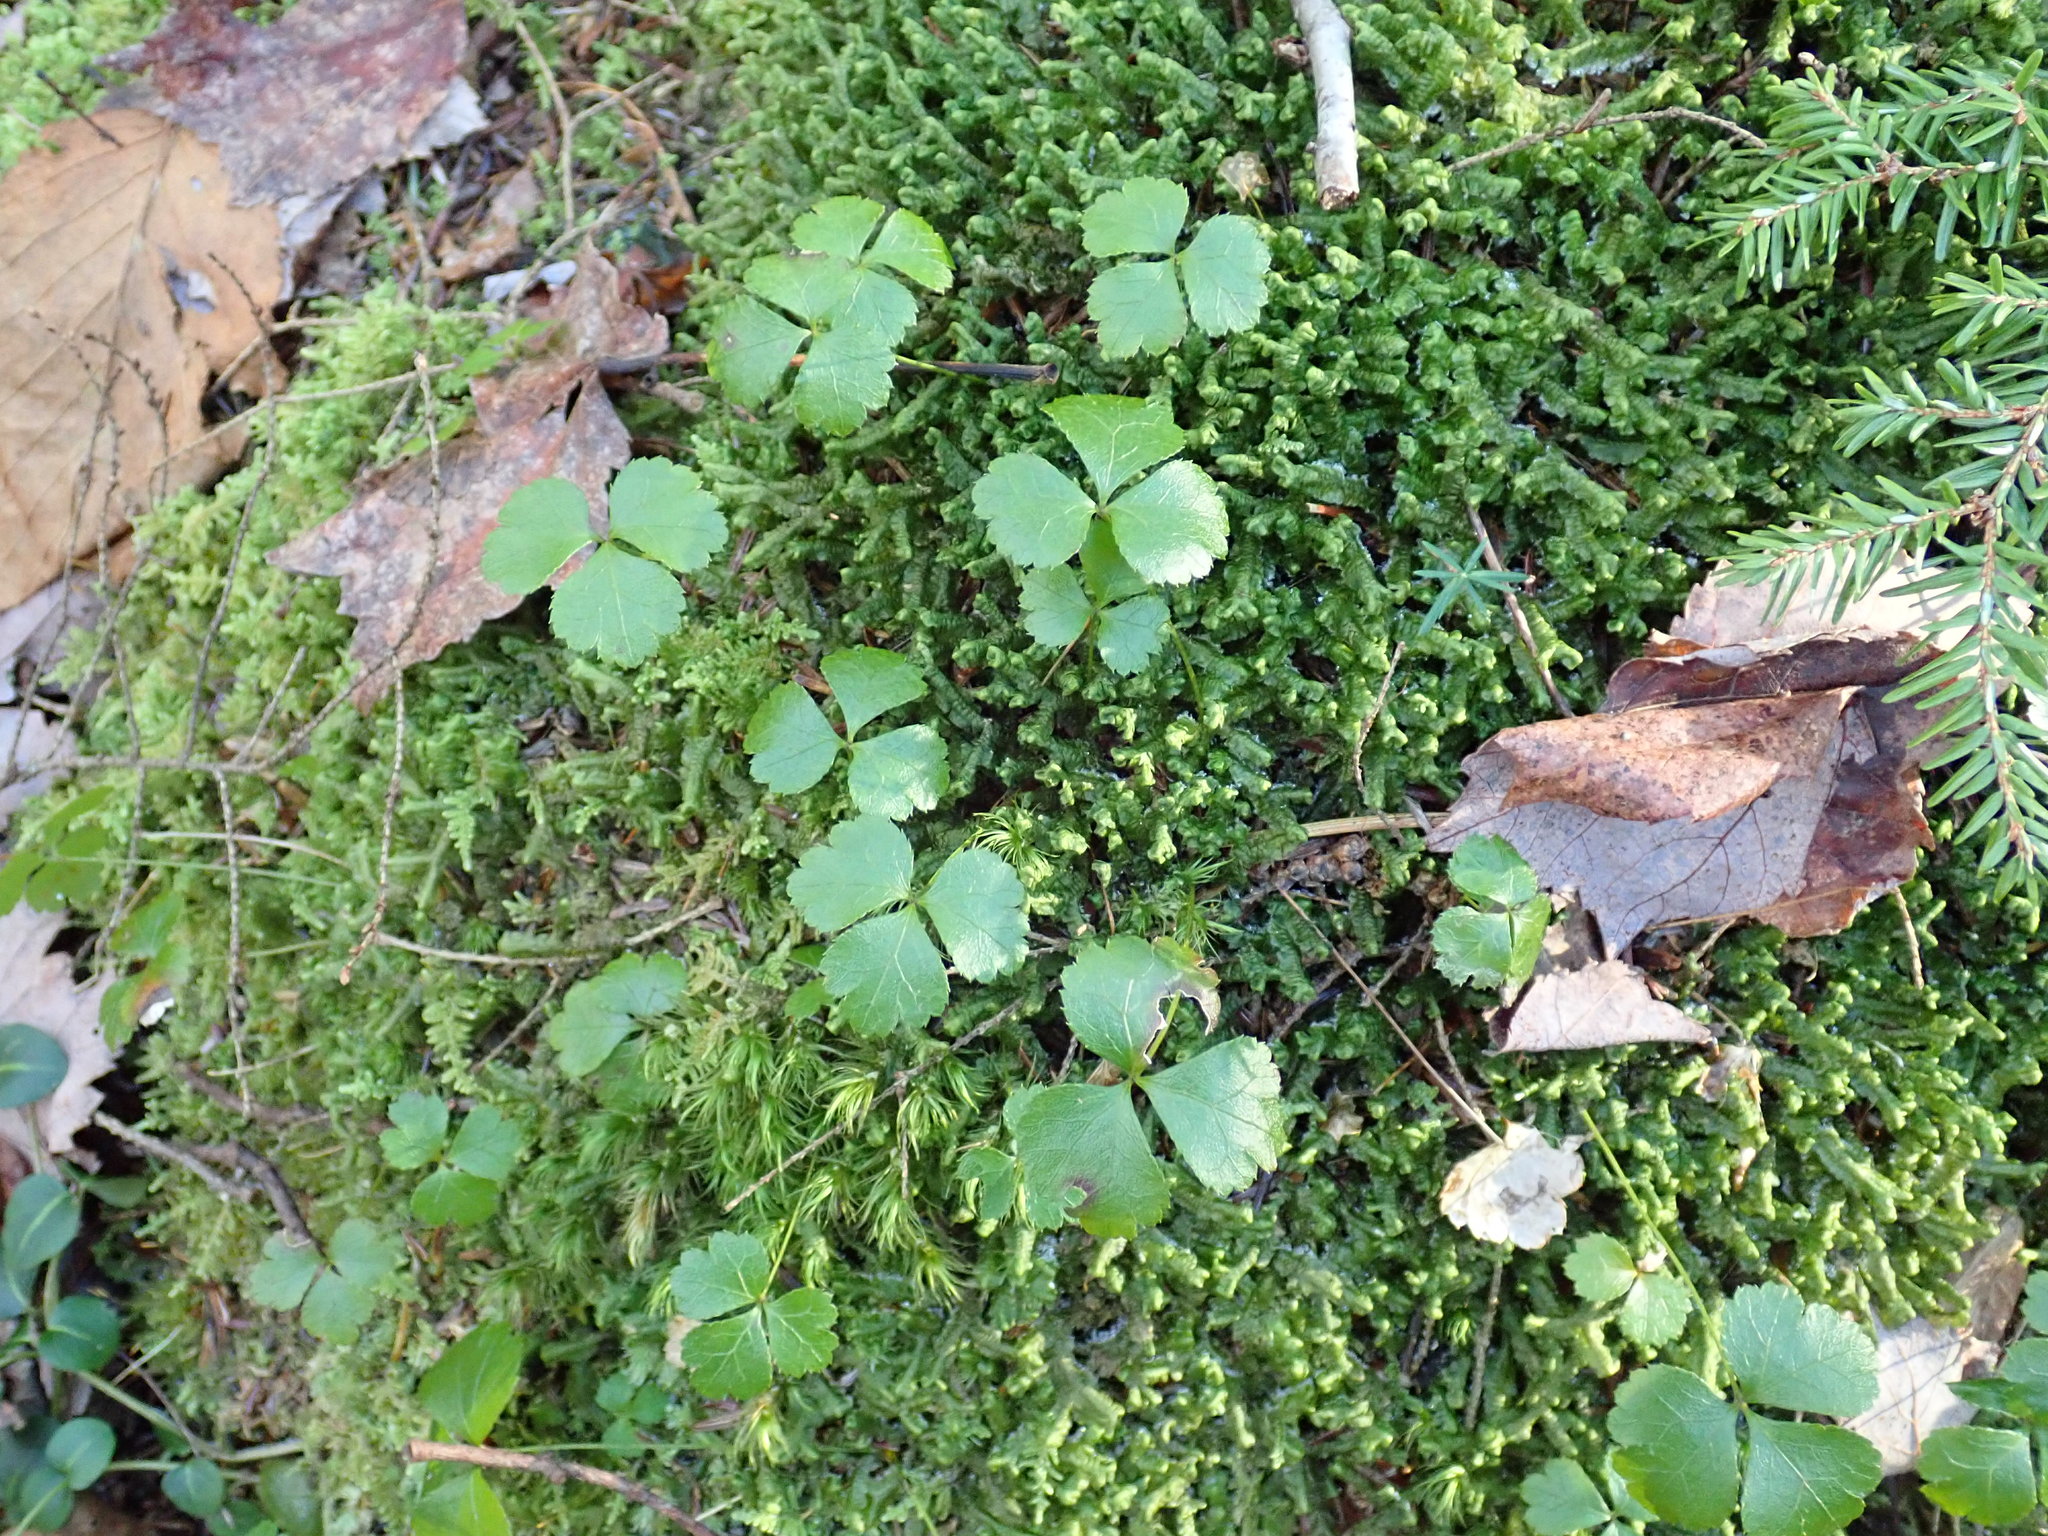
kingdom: Plantae
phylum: Tracheophyta
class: Magnoliopsida
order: Ranunculales
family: Ranunculaceae
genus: Coptis
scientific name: Coptis trifolia
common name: Canker-root
